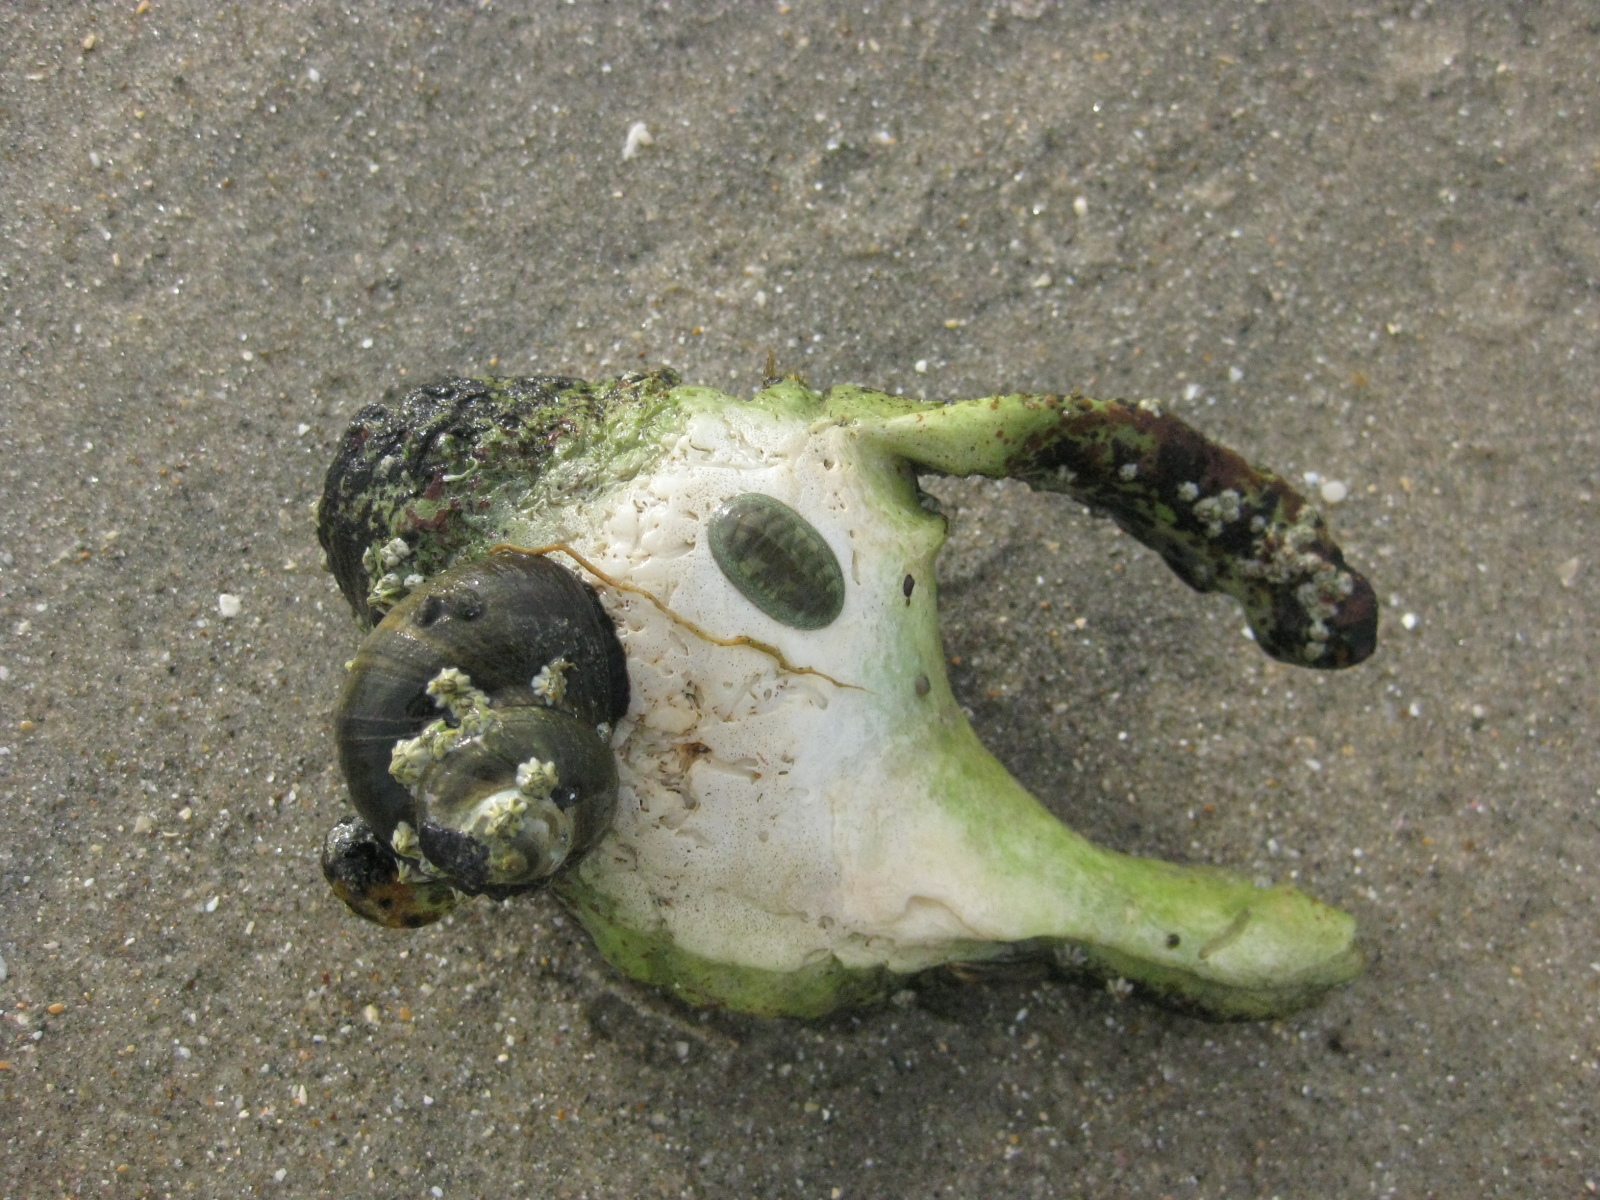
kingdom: Animalia
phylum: Mollusca
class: Gastropoda
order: Littorinimorpha
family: Charoniidae
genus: Charonia
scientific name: Charonia lampas
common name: Knobbed triton
